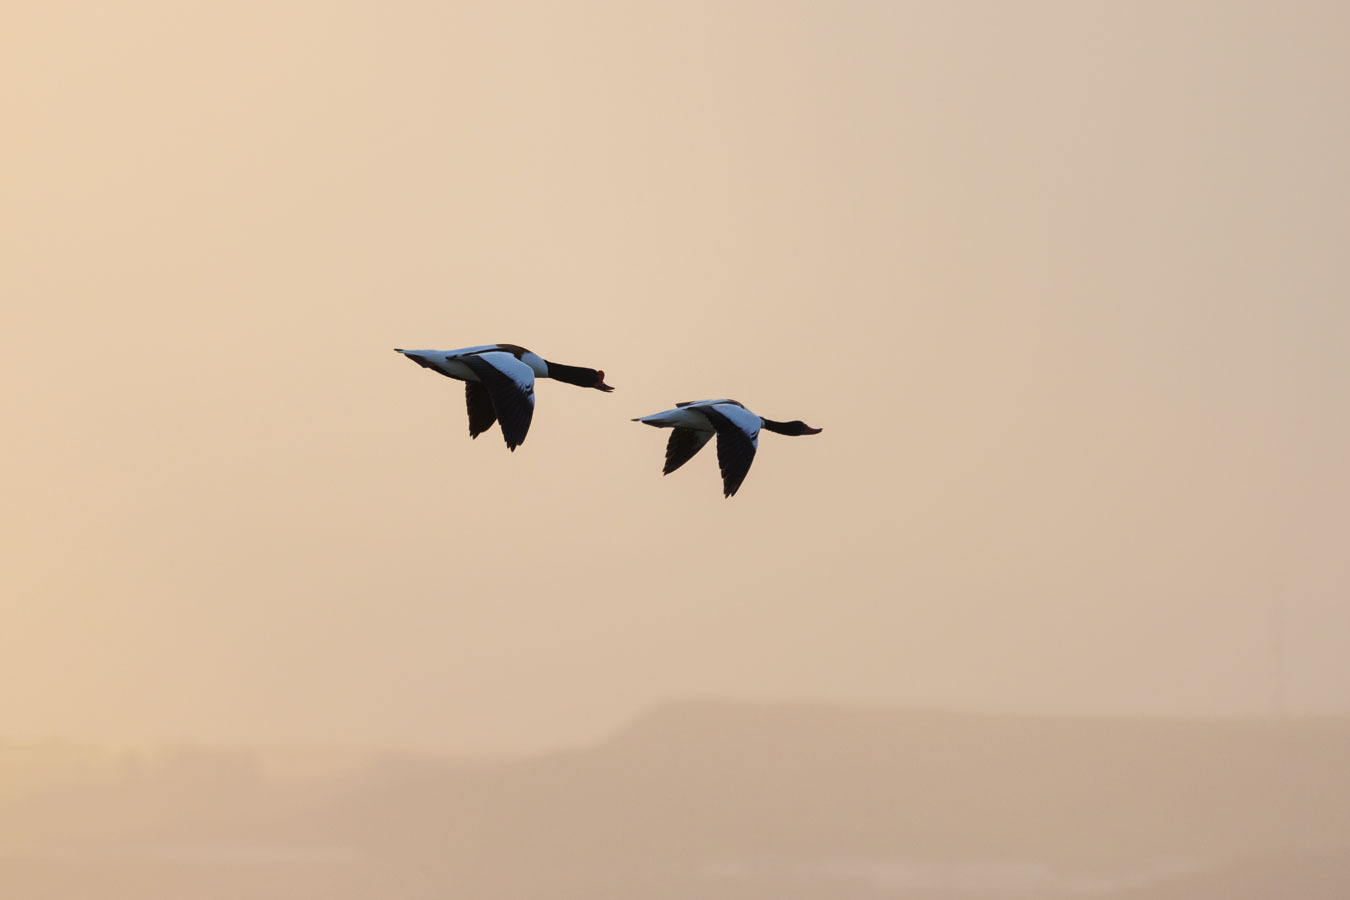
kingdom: Animalia
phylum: Chordata
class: Aves
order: Anseriformes
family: Anatidae
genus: Tadorna
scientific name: Tadorna tadorna
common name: Common shelduck
